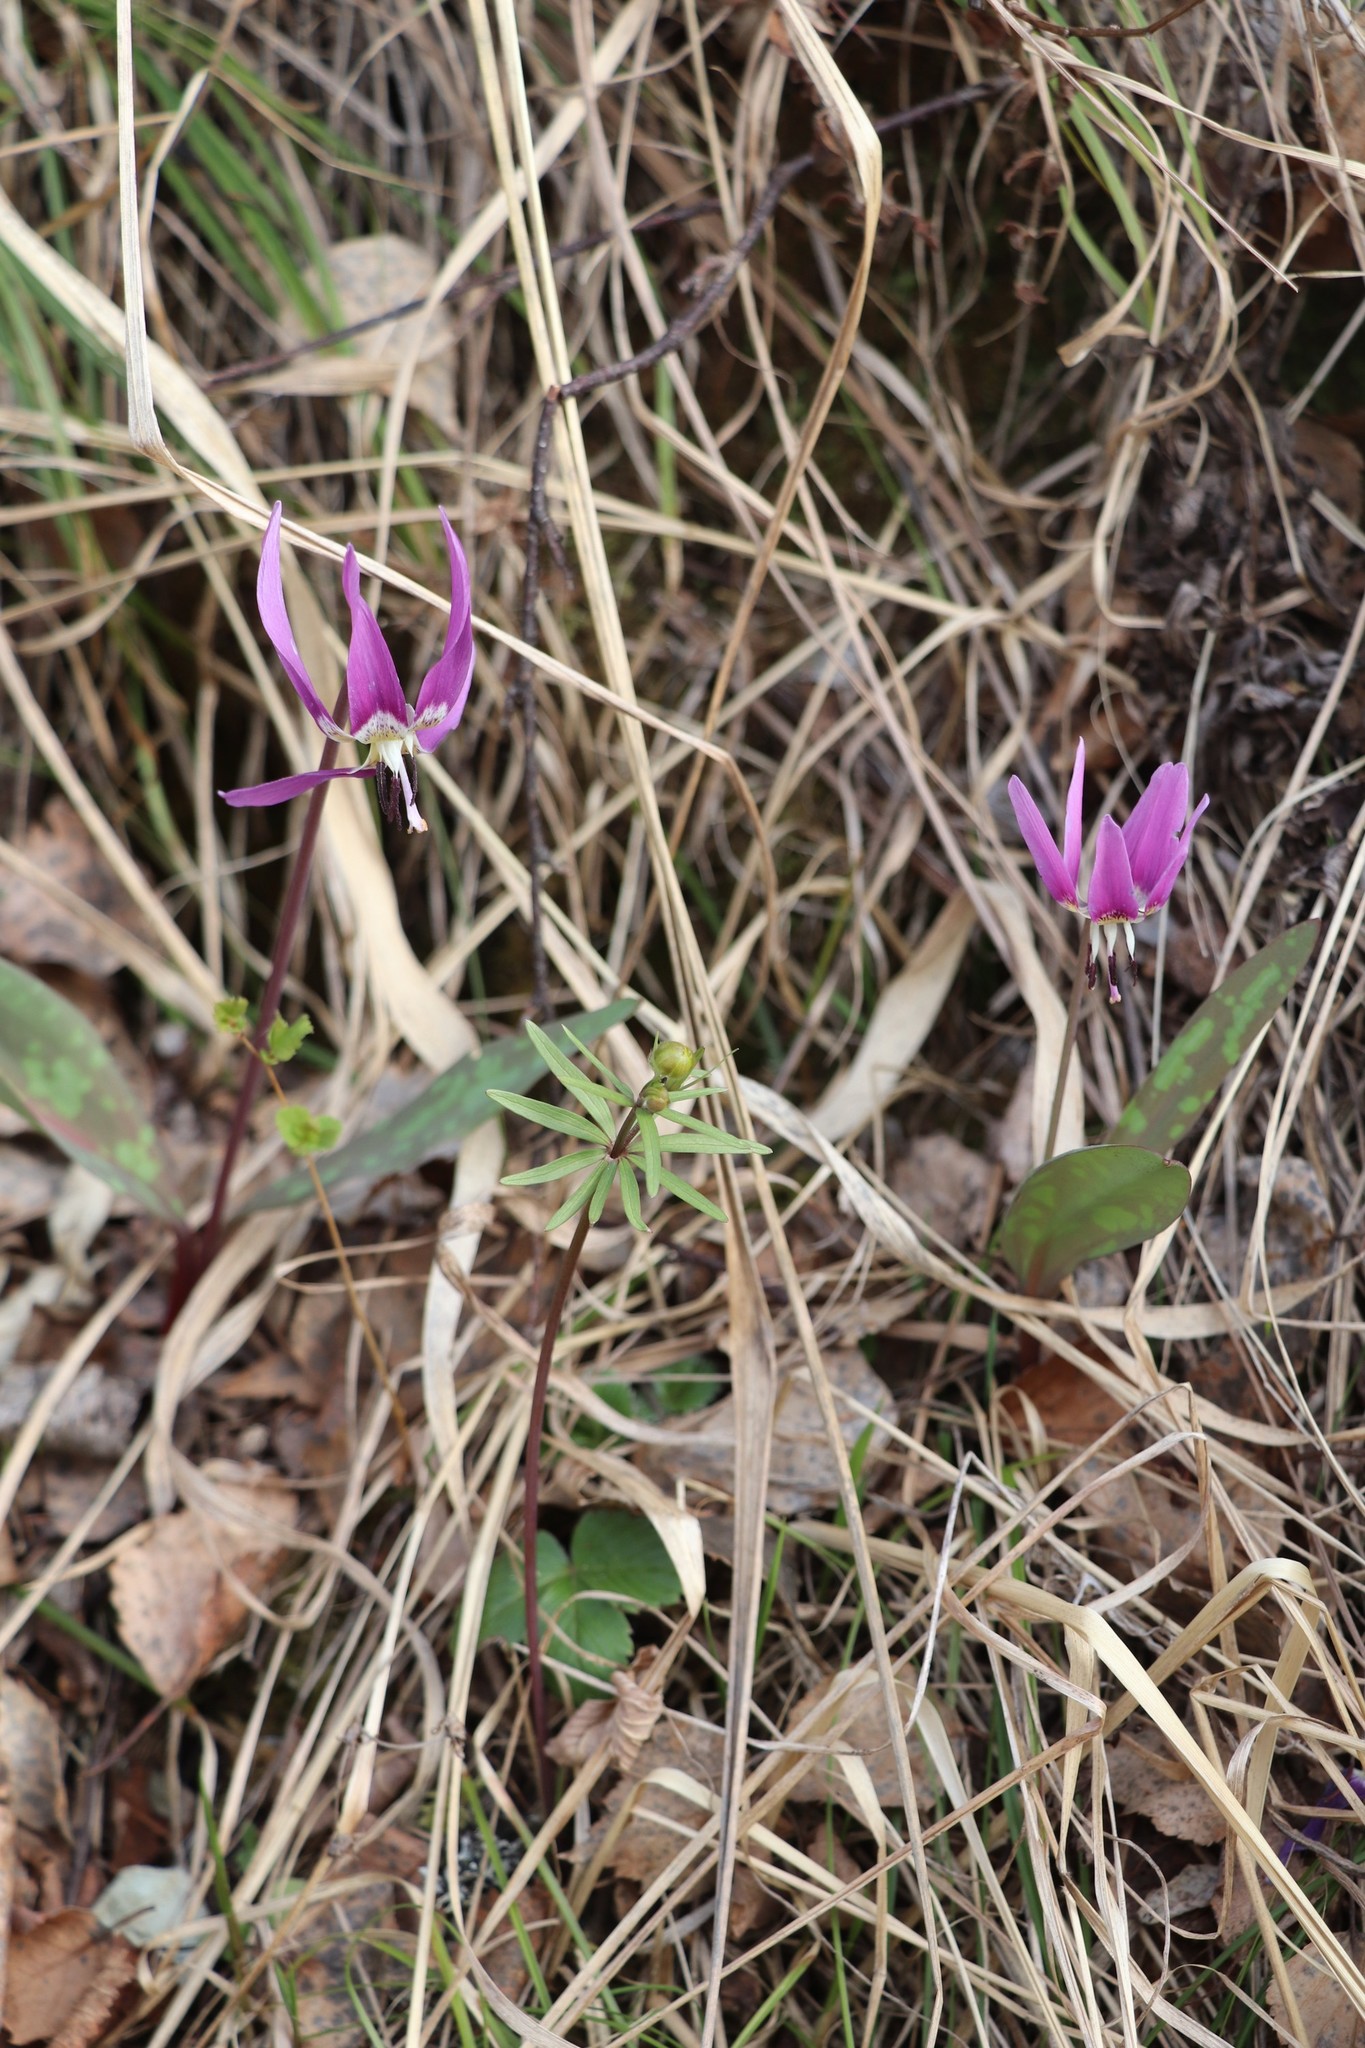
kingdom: Plantae
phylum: Tracheophyta
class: Liliopsida
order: Liliales
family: Liliaceae
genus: Erythronium
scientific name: Erythronium sulevii
